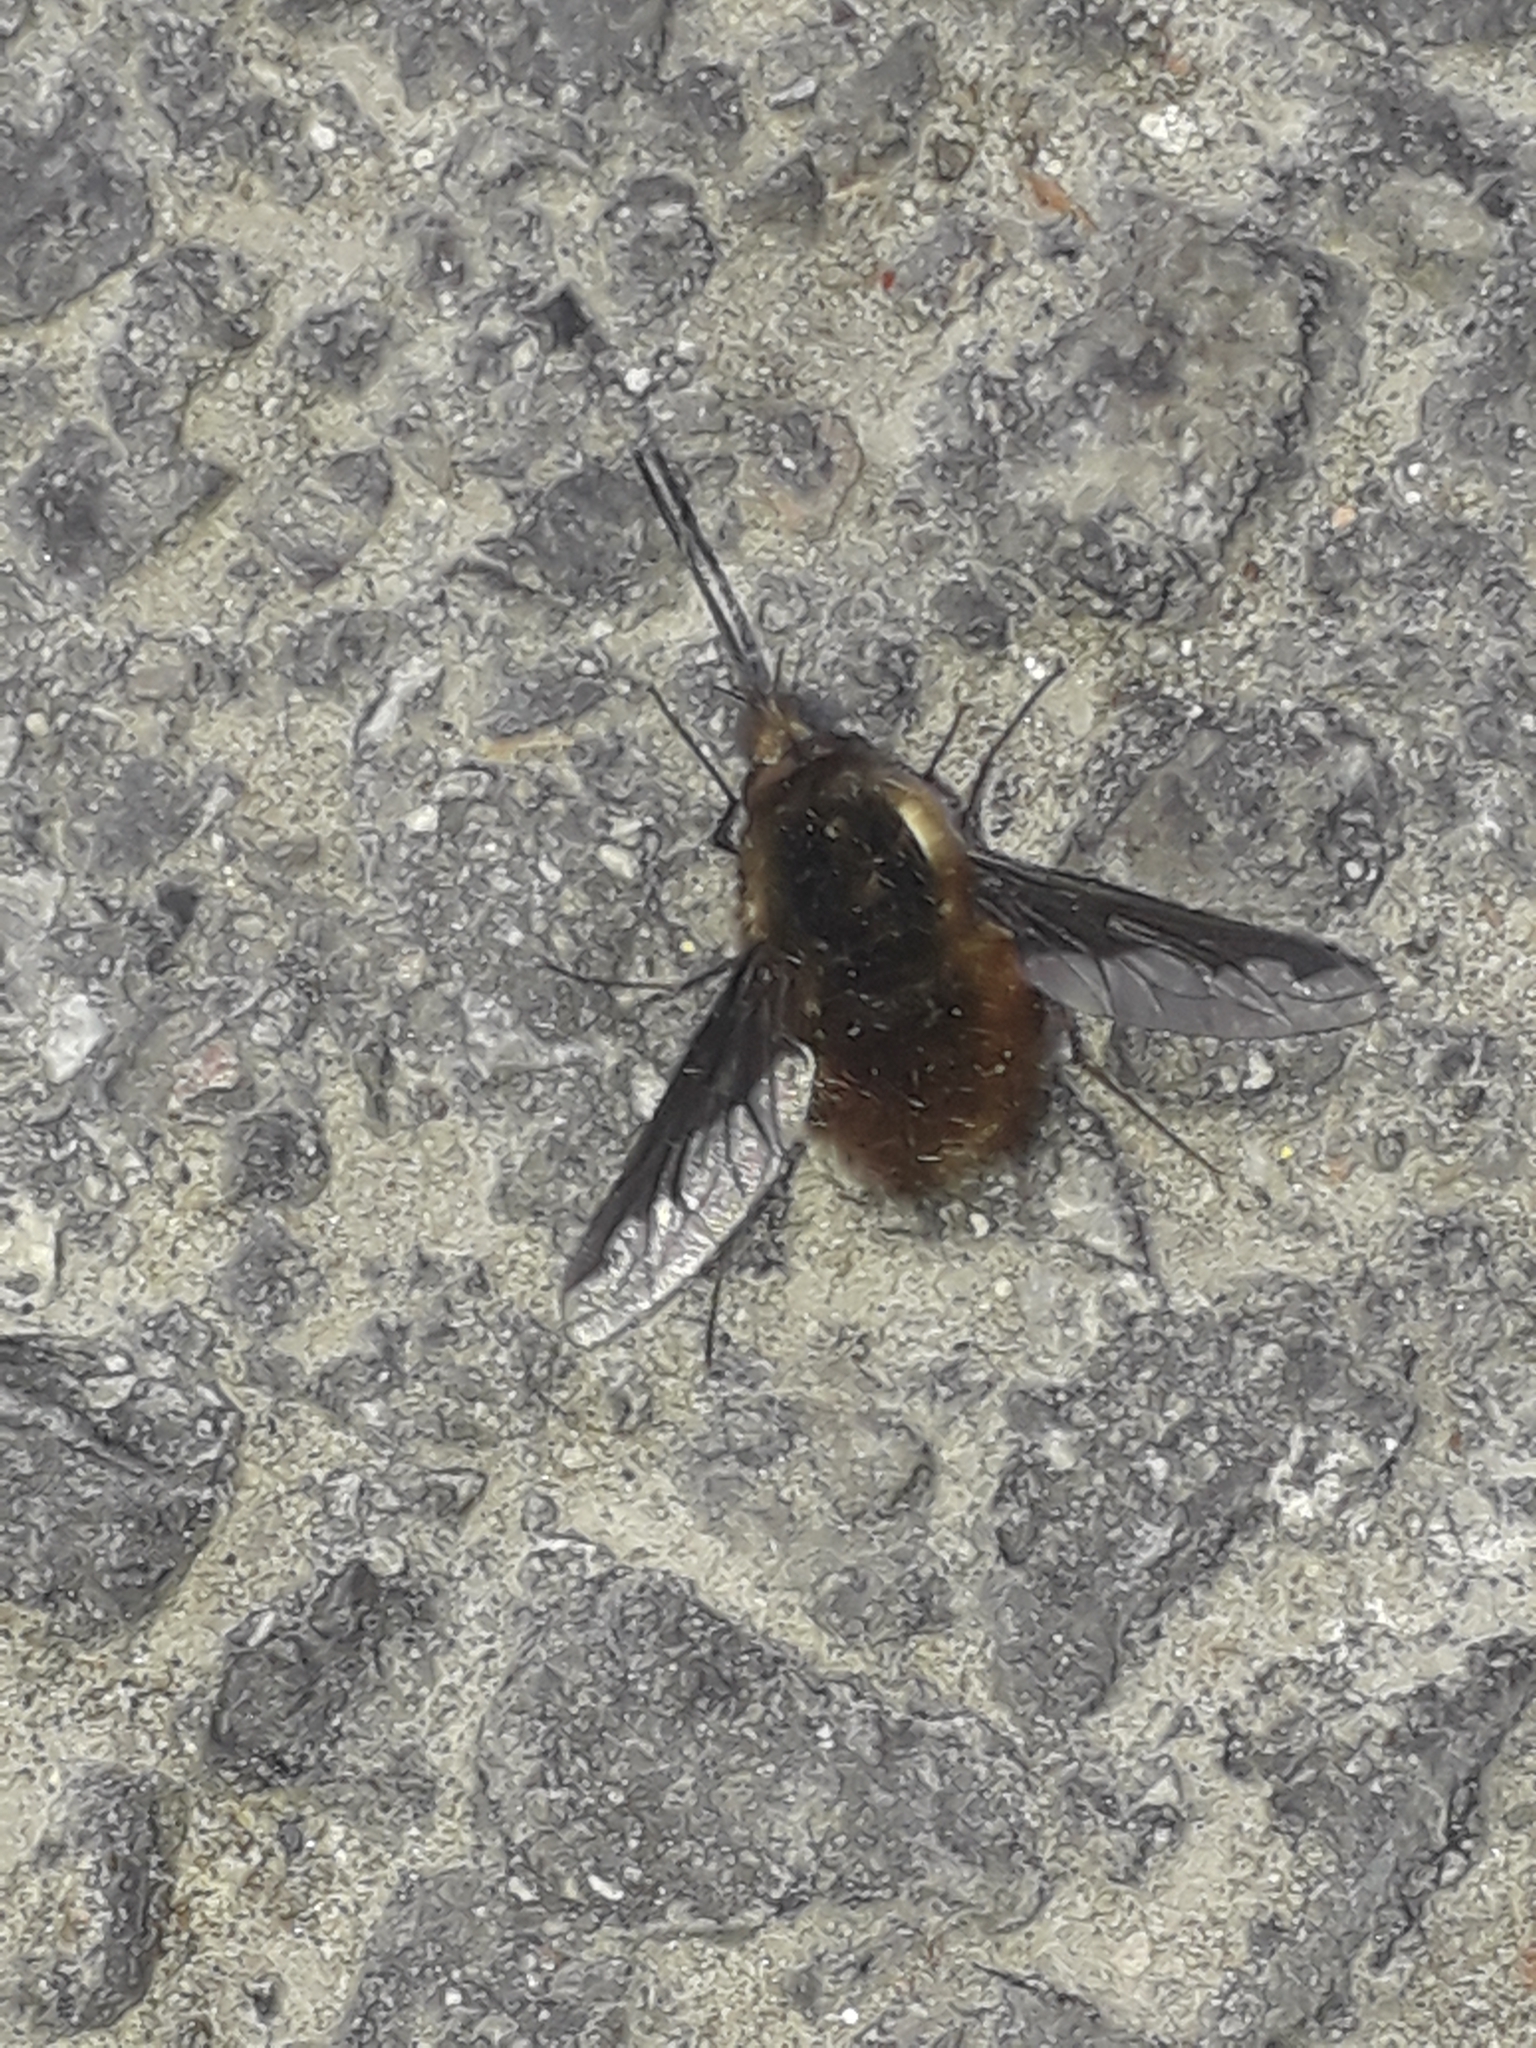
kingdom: Animalia
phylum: Arthropoda
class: Insecta
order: Diptera
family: Bombyliidae
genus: Bombylius
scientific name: Bombylius major
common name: Bee fly
